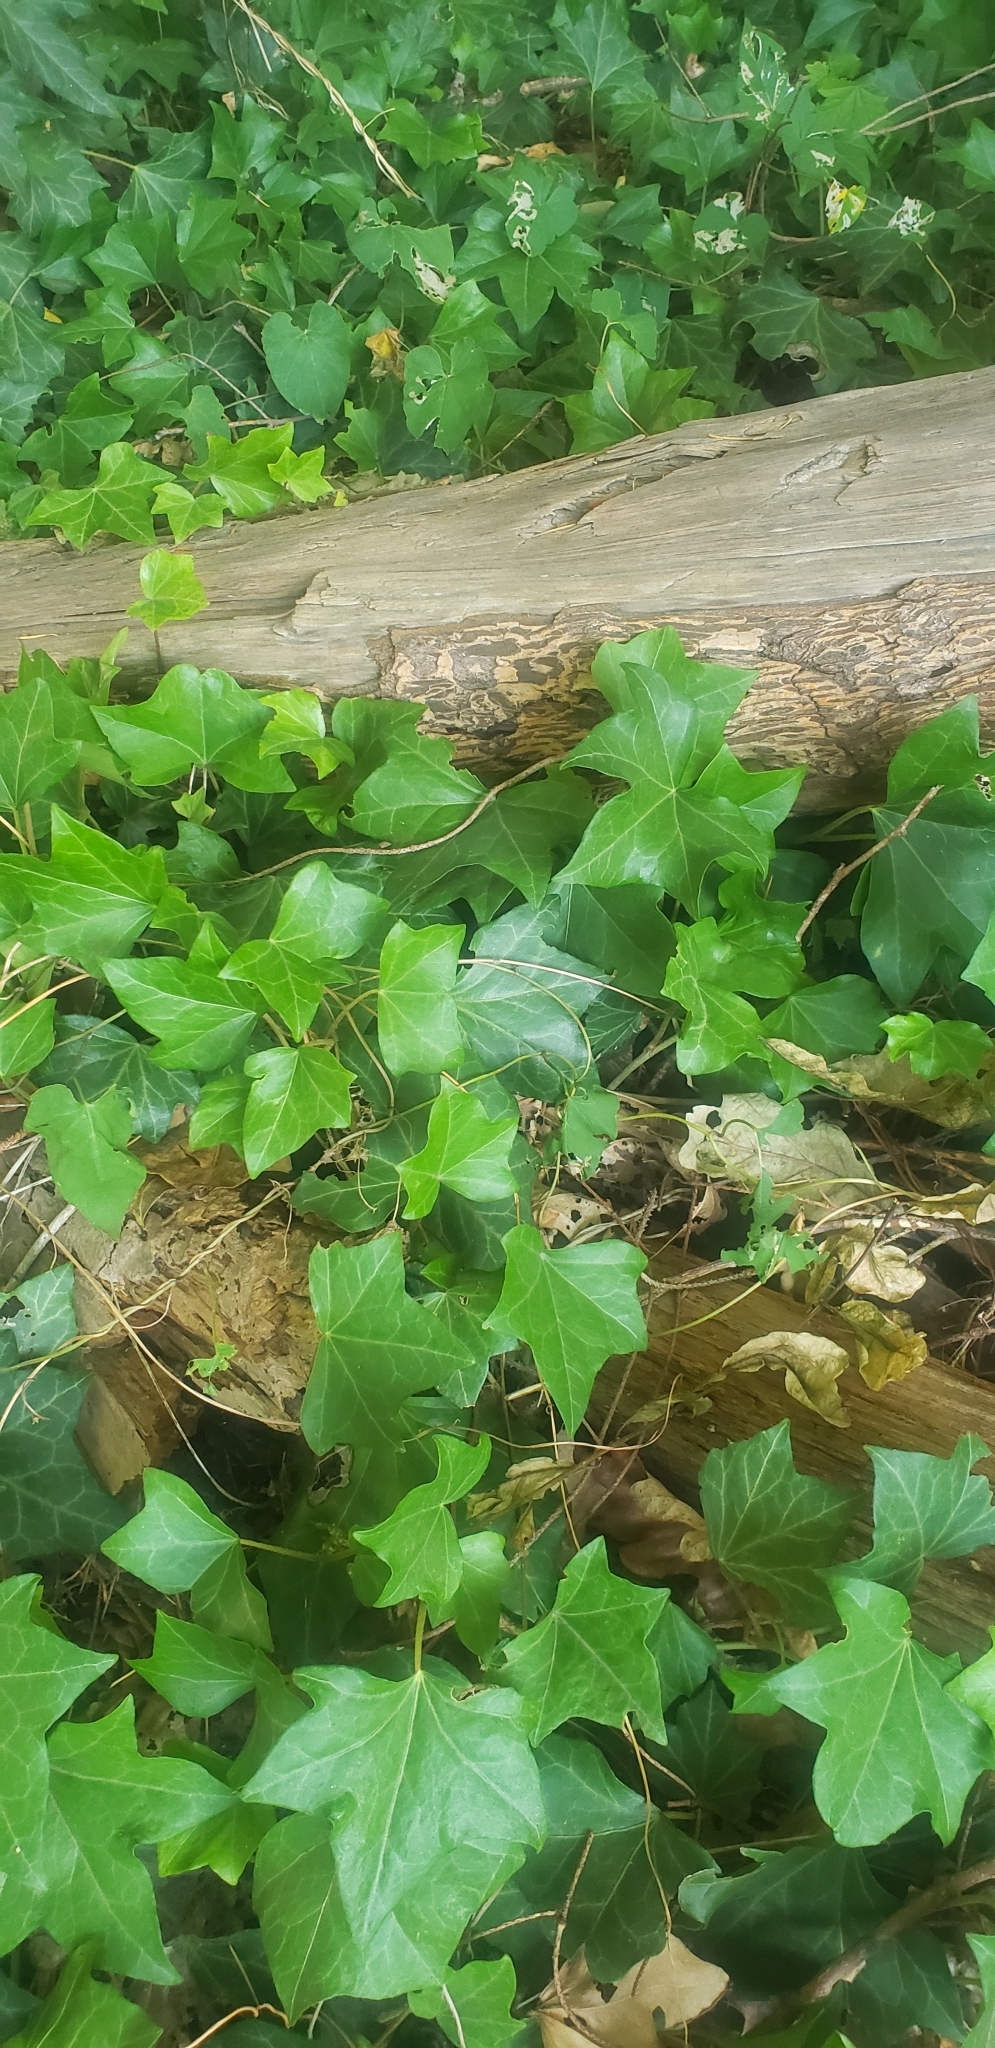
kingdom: Plantae
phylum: Tracheophyta
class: Magnoliopsida
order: Apiales
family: Araliaceae
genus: Hedera
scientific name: Hedera helix
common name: Ivy
